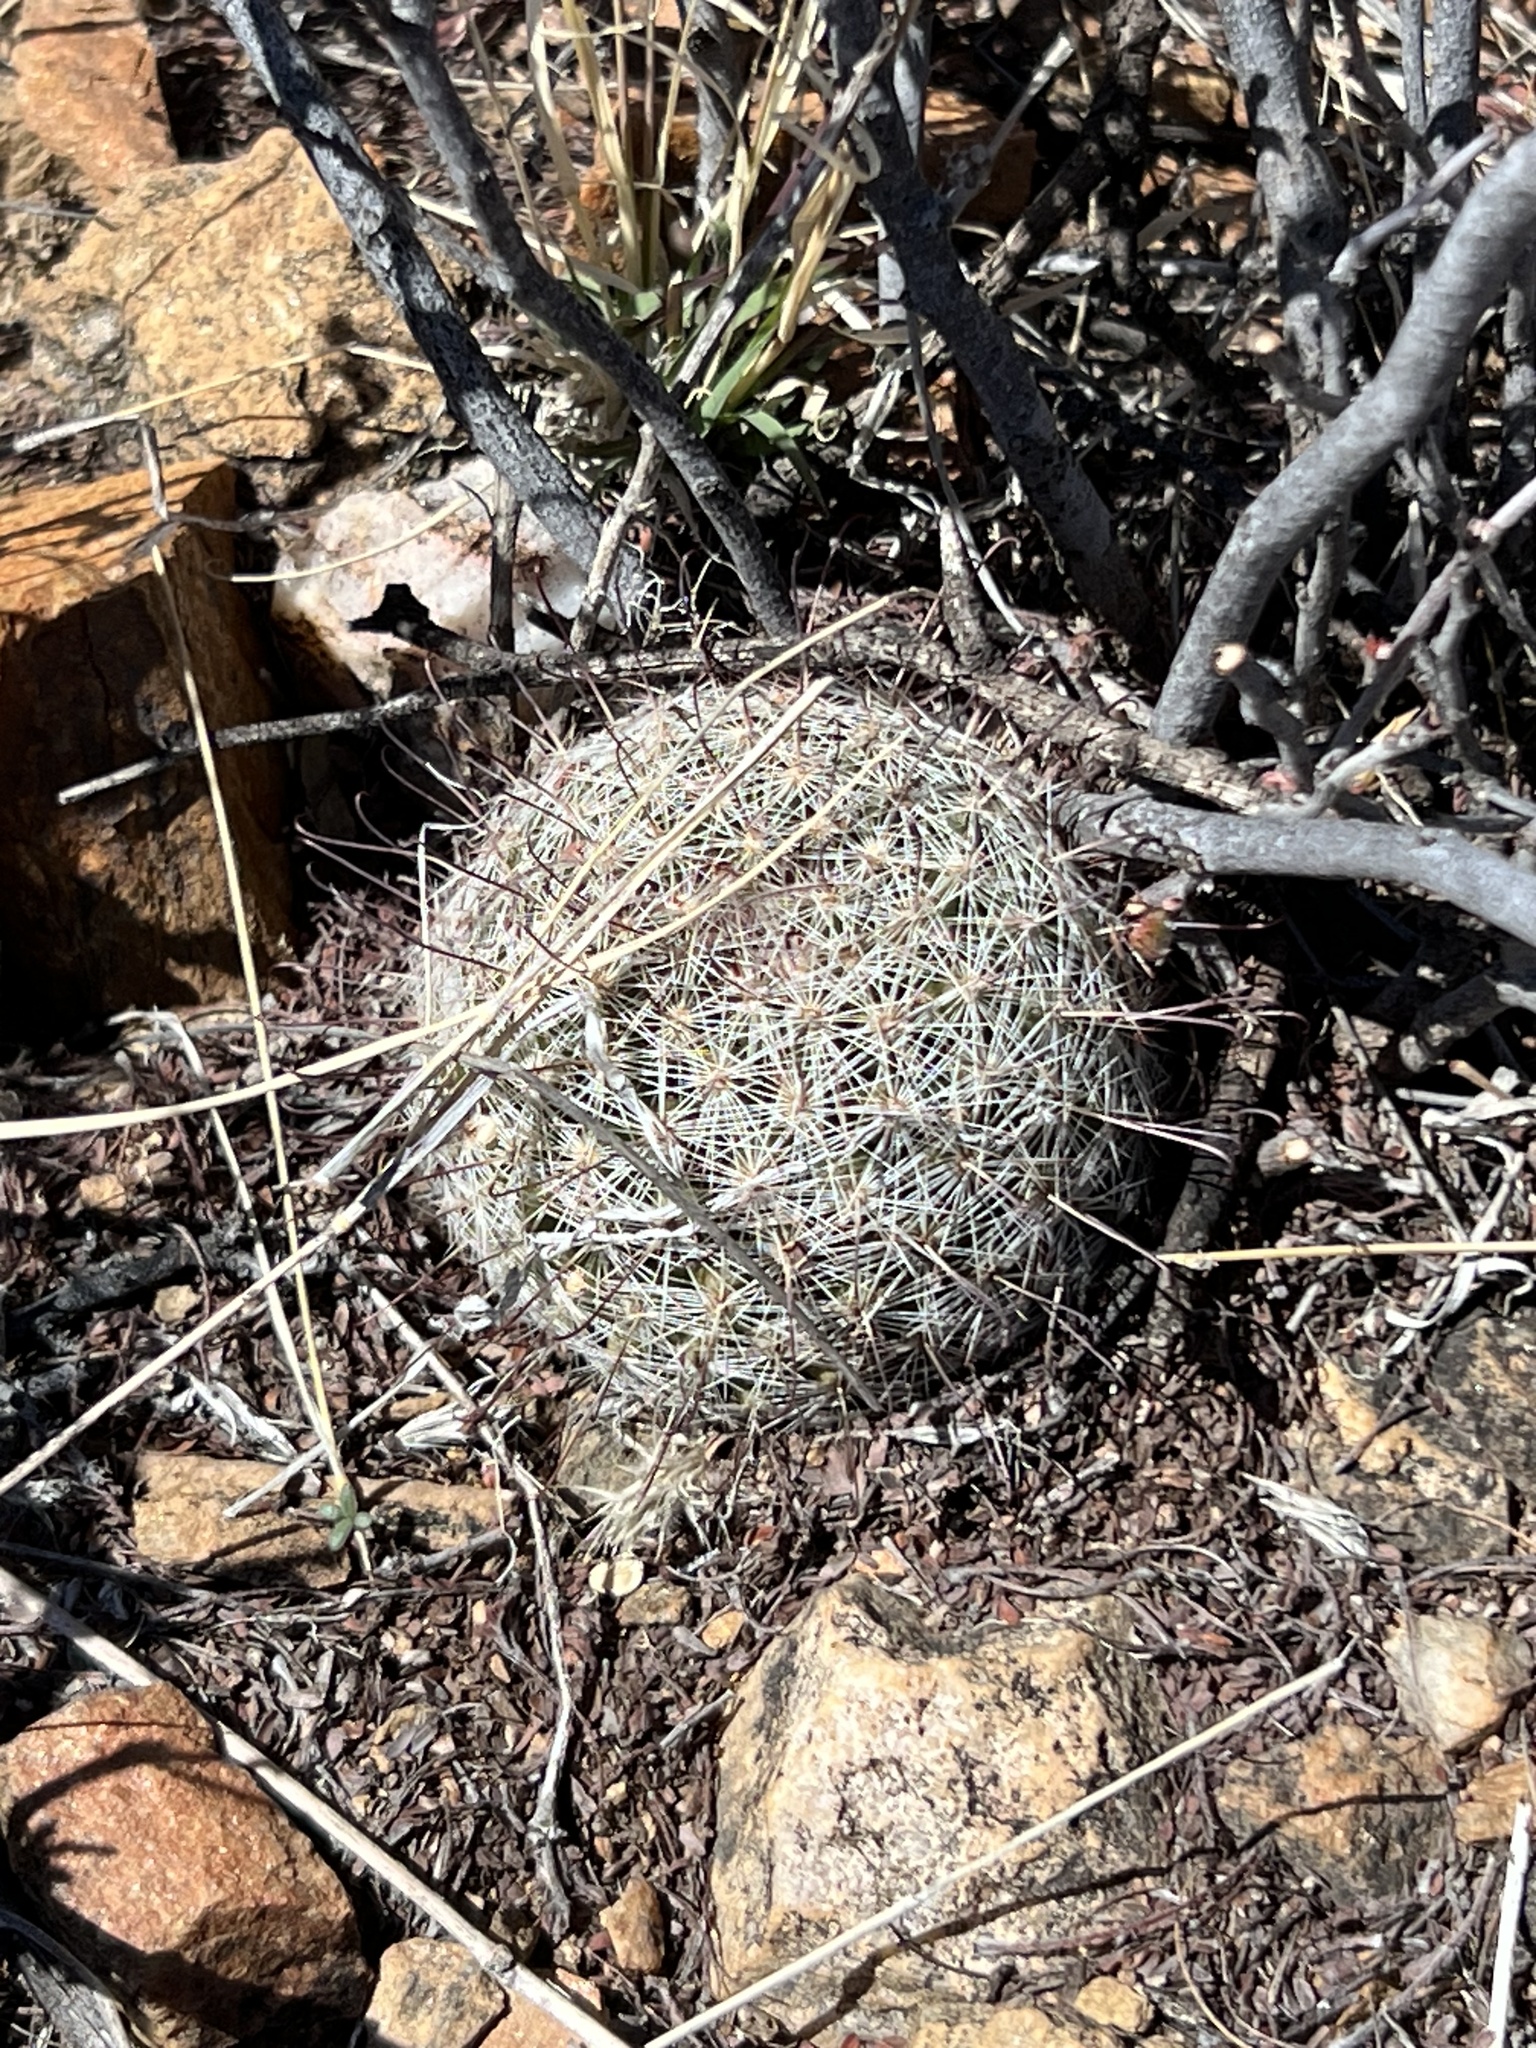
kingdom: Plantae
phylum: Tracheophyta
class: Magnoliopsida
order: Caryophyllales
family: Cactaceae
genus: Cochemiea
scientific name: Cochemiea grahamii
